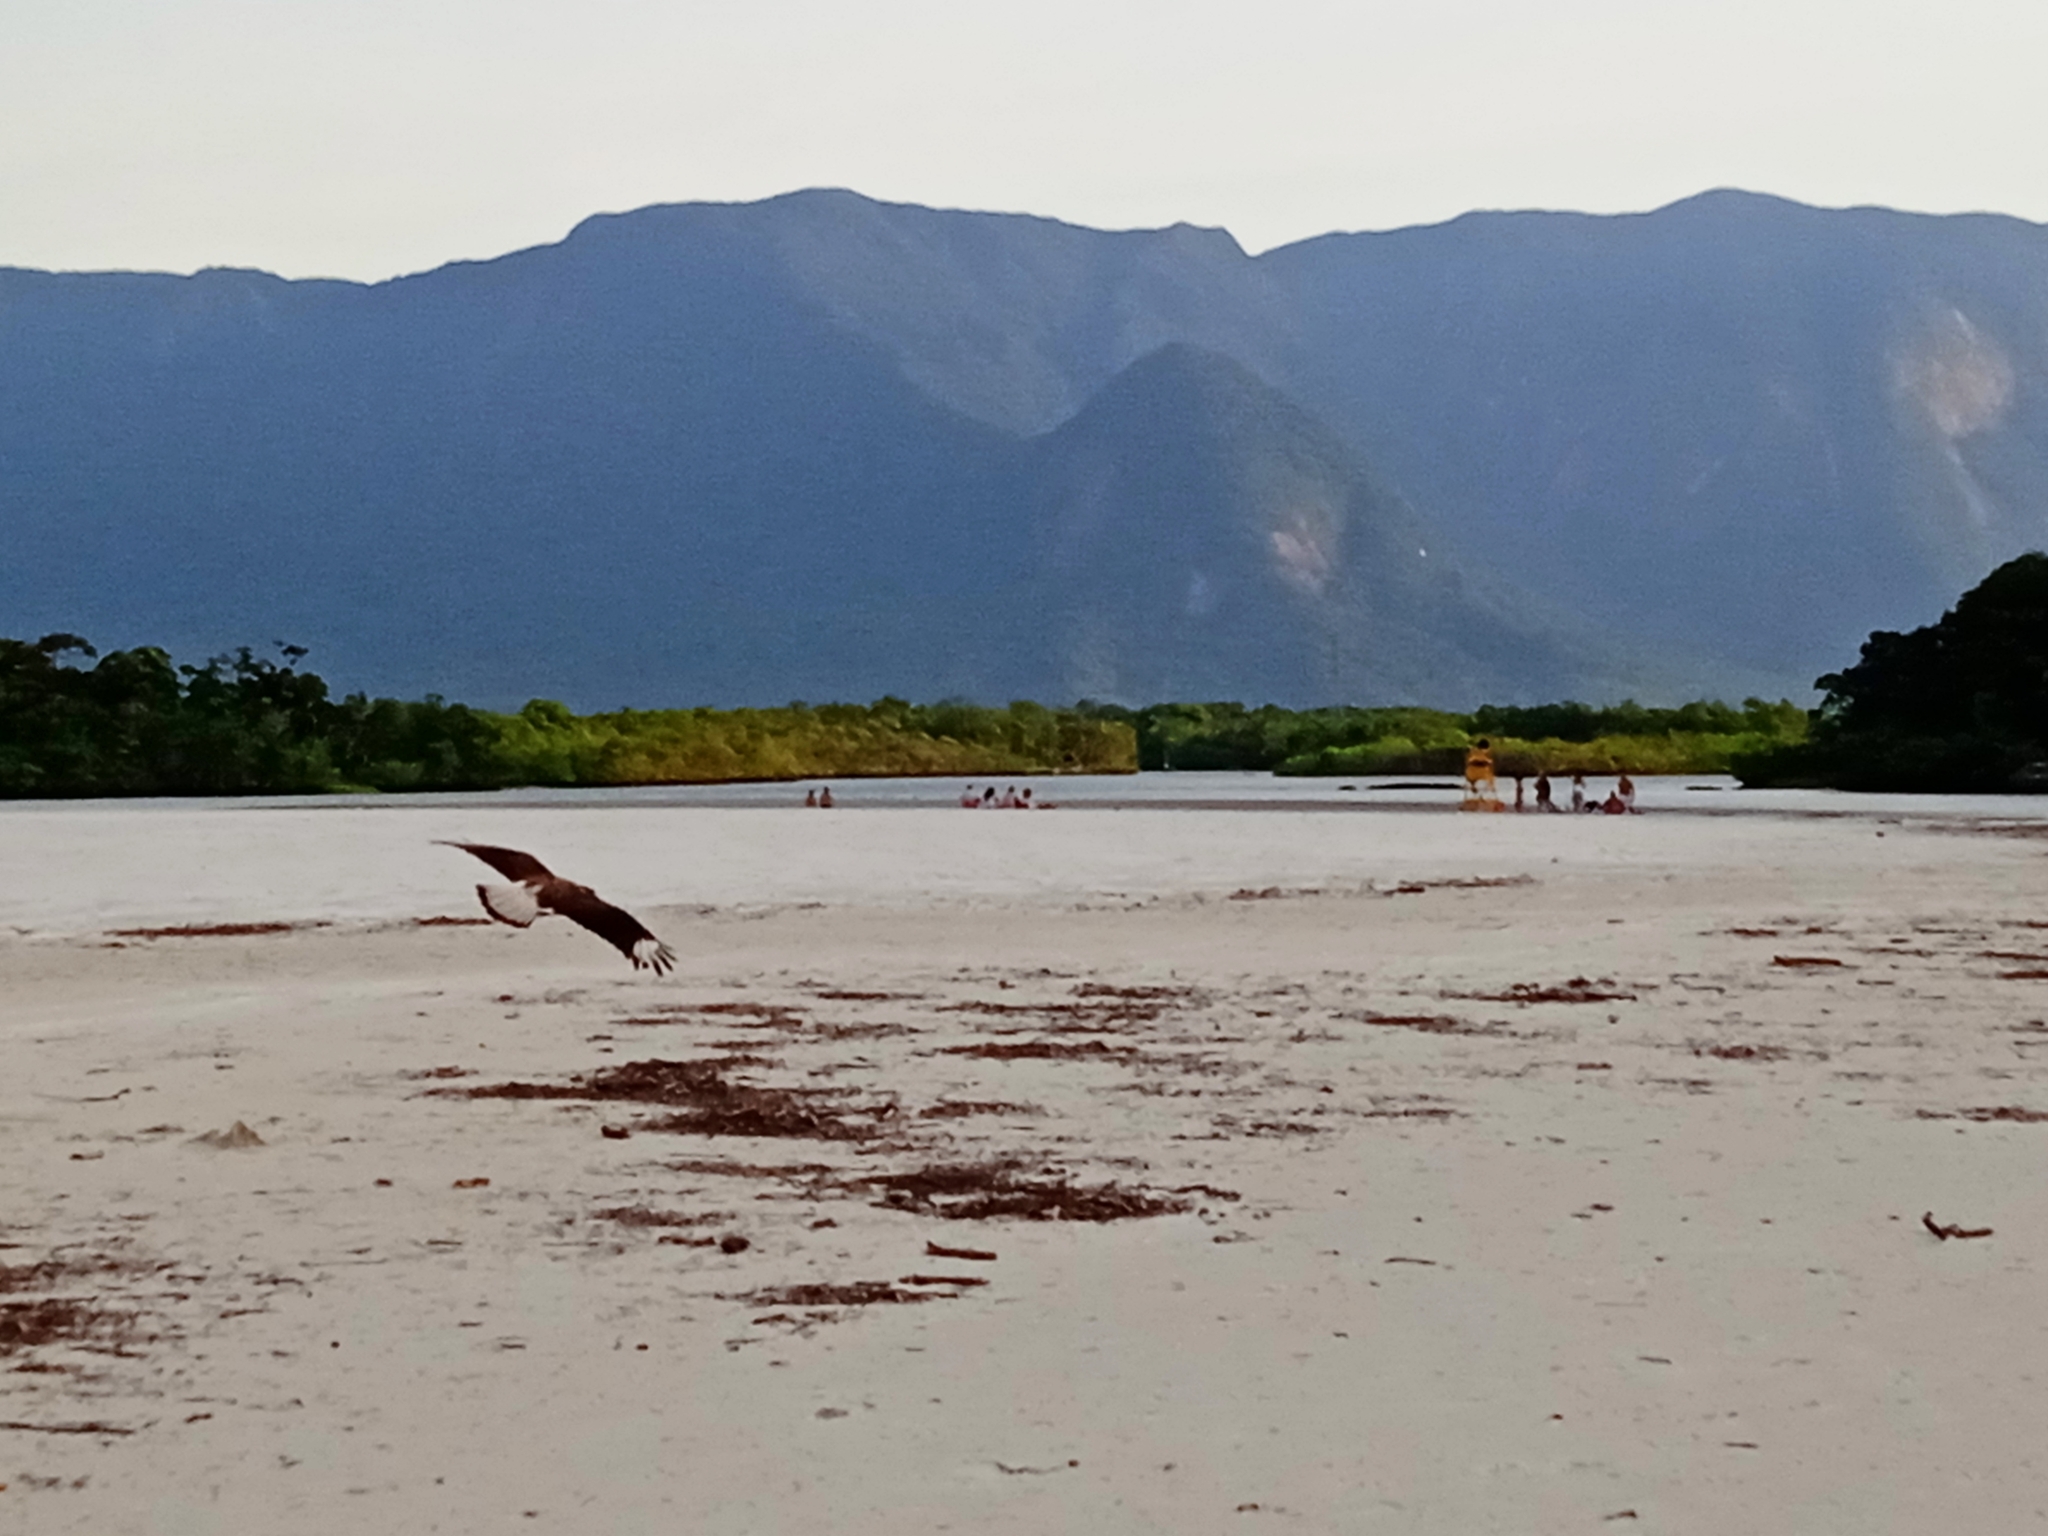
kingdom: Animalia
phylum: Chordata
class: Aves
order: Falconiformes
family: Falconidae
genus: Caracara
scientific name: Caracara plancus
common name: Southern caracara
